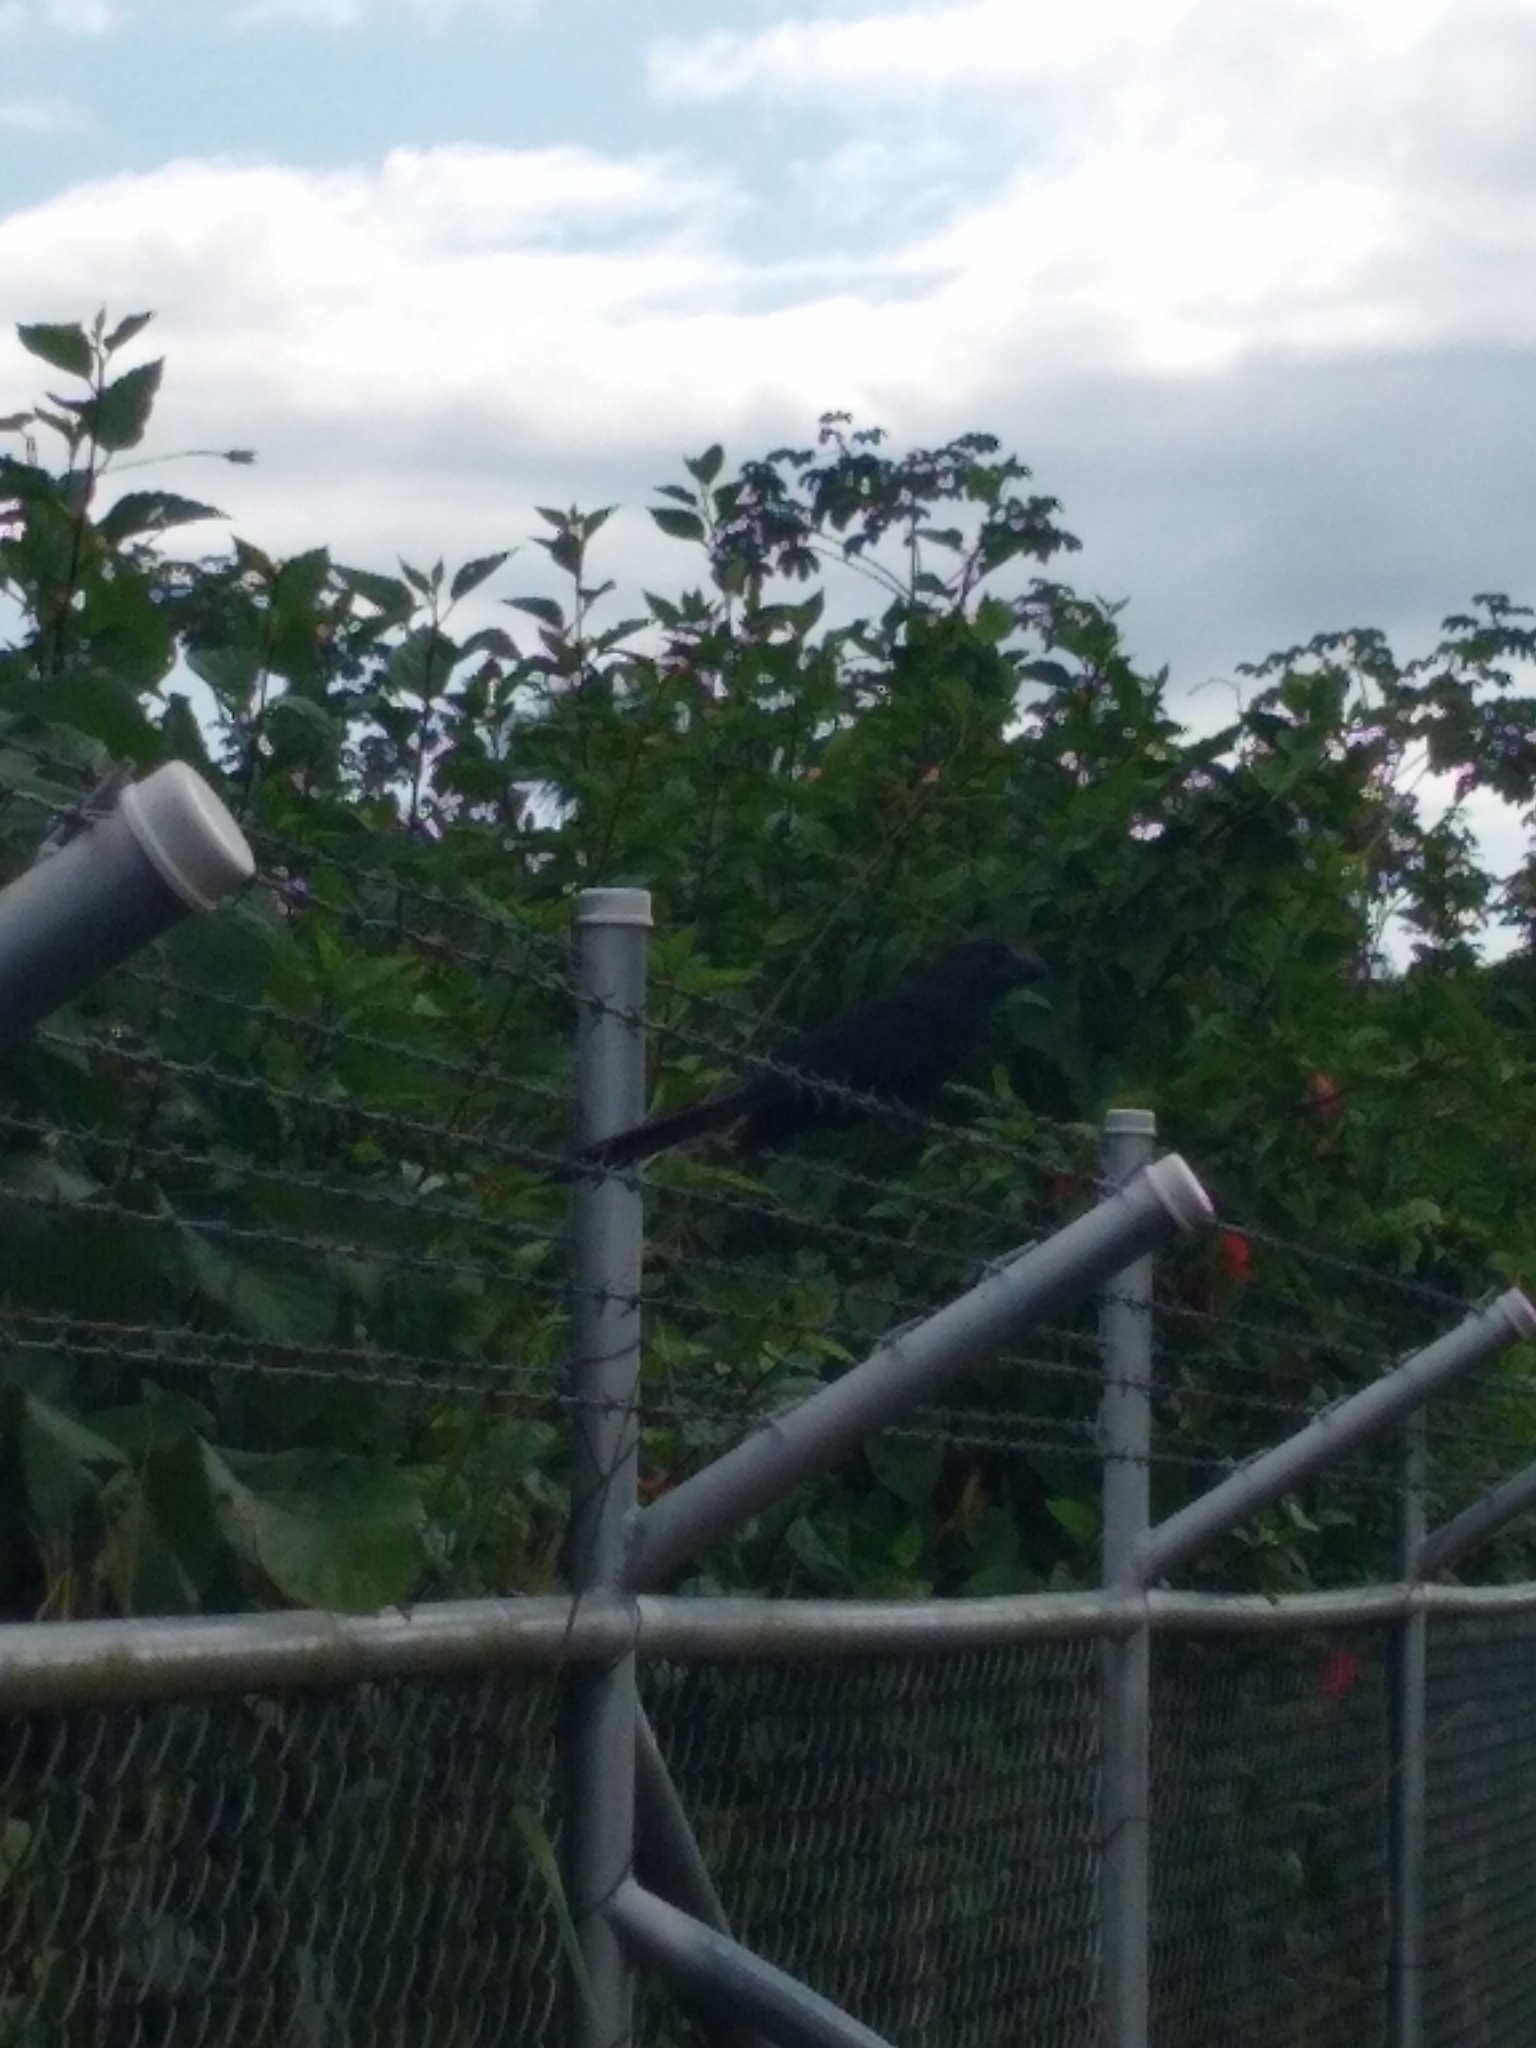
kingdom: Animalia
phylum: Chordata
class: Aves
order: Cuculiformes
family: Cuculidae
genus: Crotophaga
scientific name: Crotophaga ani
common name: Smooth-billed ani
